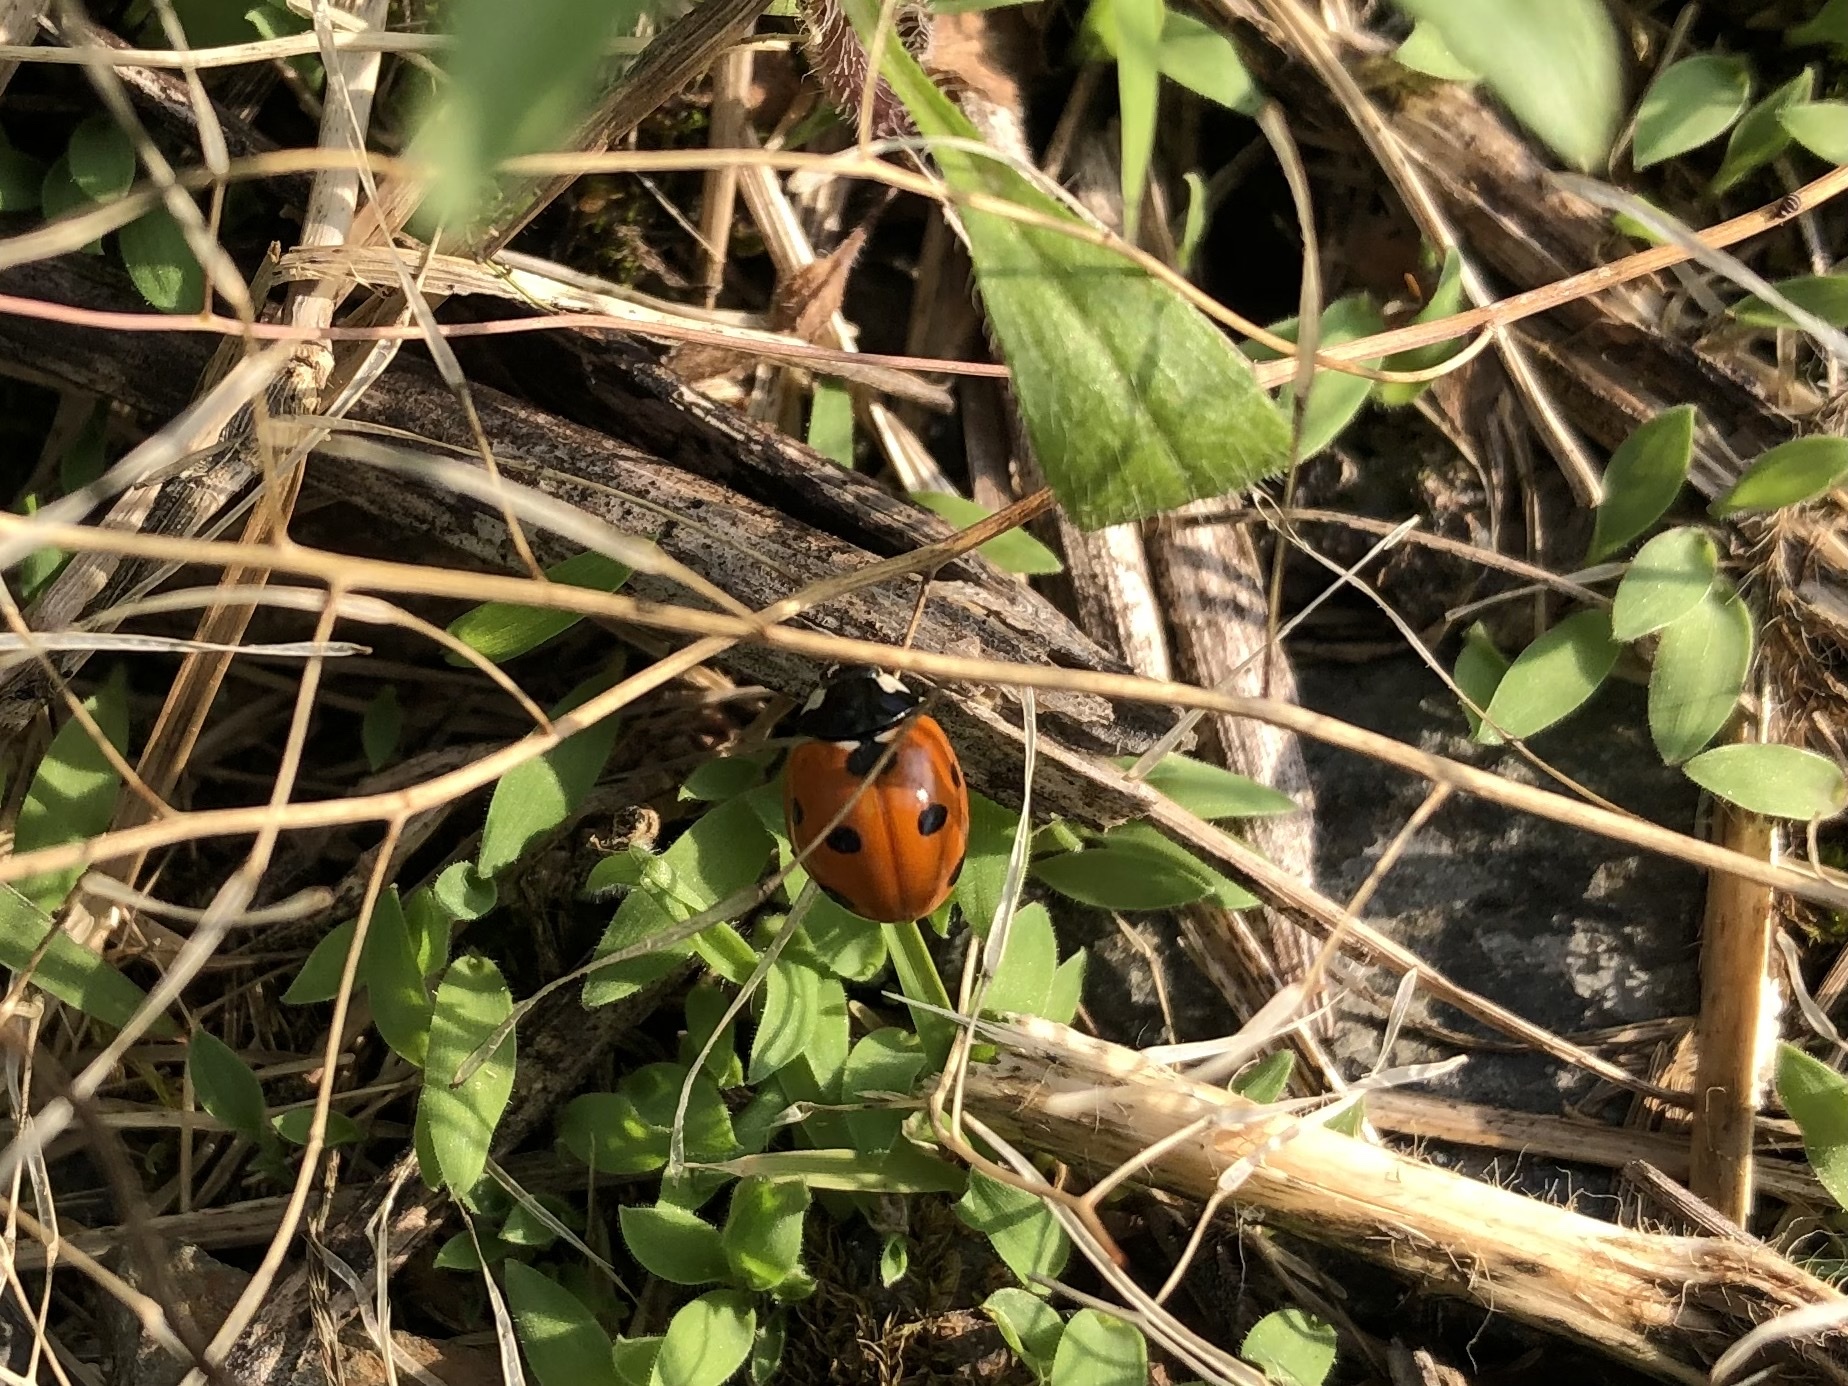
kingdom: Animalia
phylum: Arthropoda
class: Insecta
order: Coleoptera
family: Coccinellidae
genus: Coccinella
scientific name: Coccinella septempunctata
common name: Sevenspotted lady beetle
